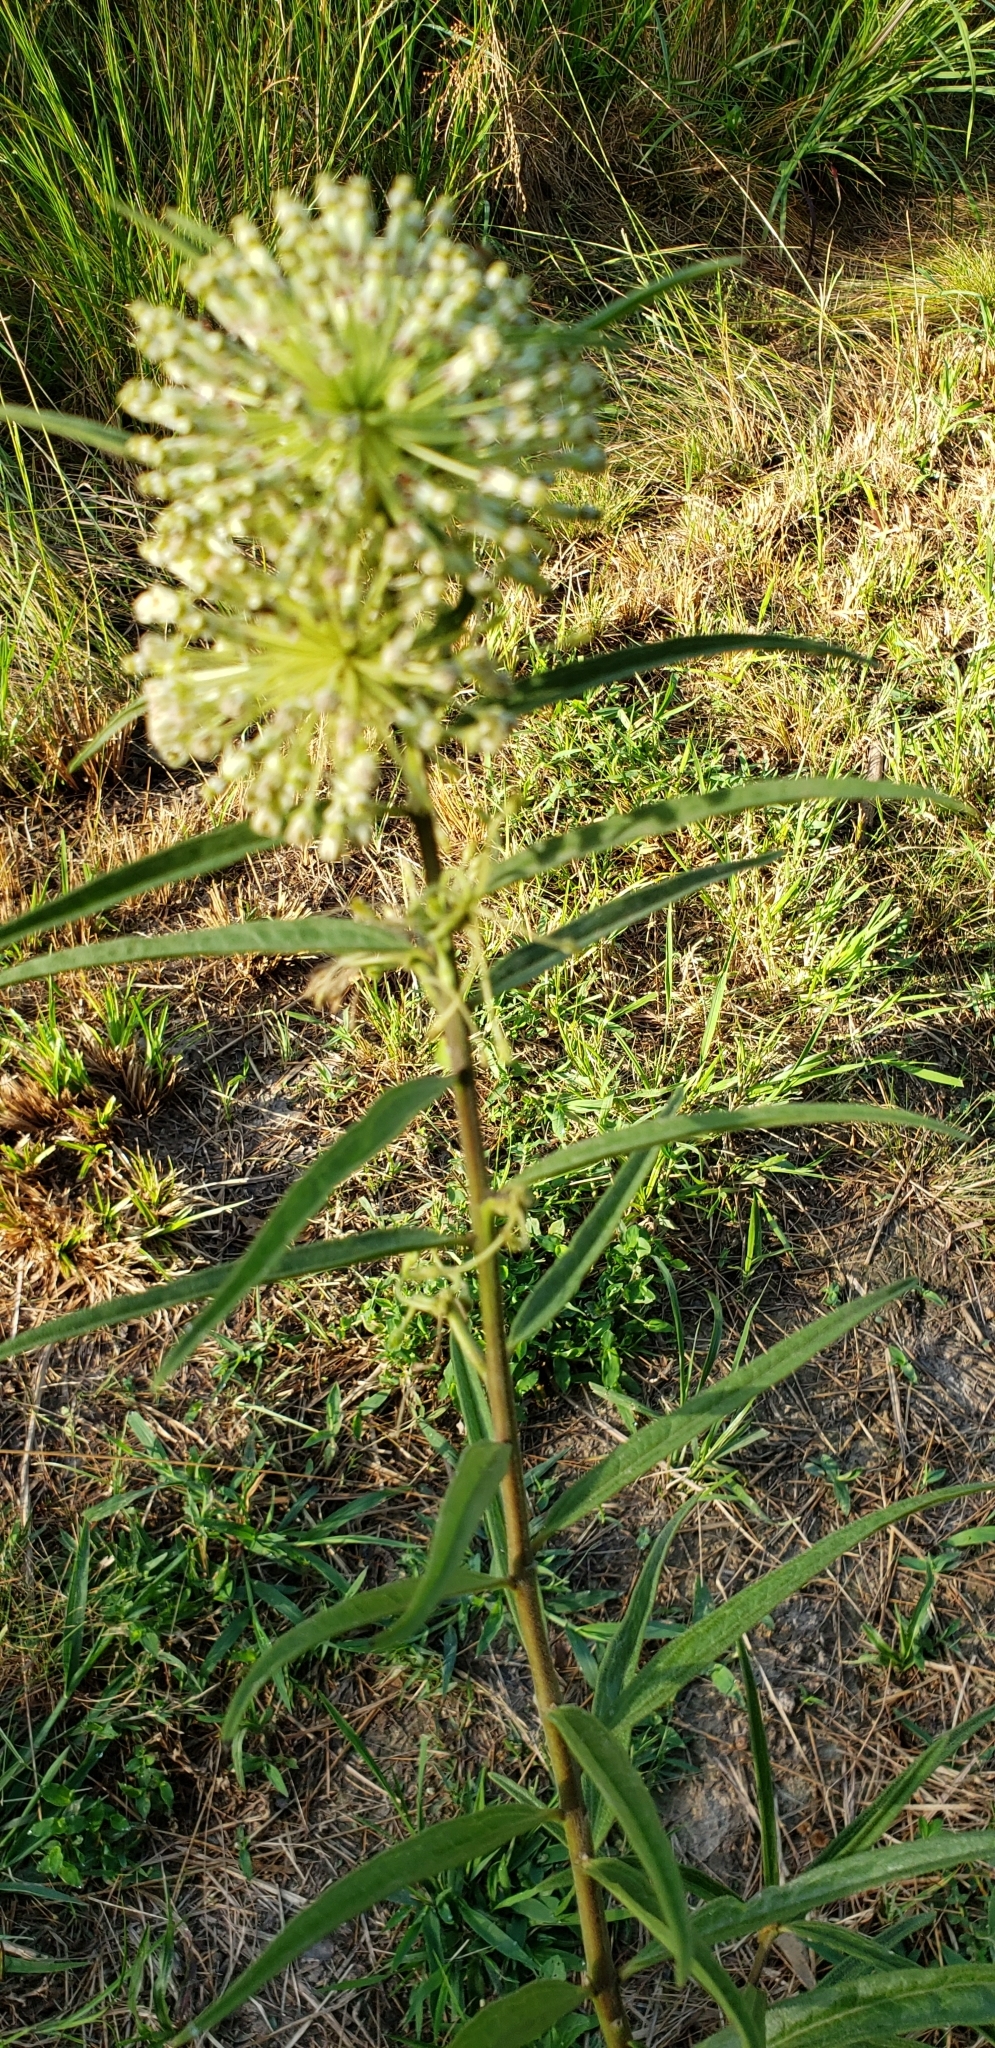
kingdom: Plantae
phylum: Tracheophyta
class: Magnoliopsida
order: Gentianales
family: Apocynaceae
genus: Asclepias
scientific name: Asclepias hirtella
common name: Prairie milkweed
